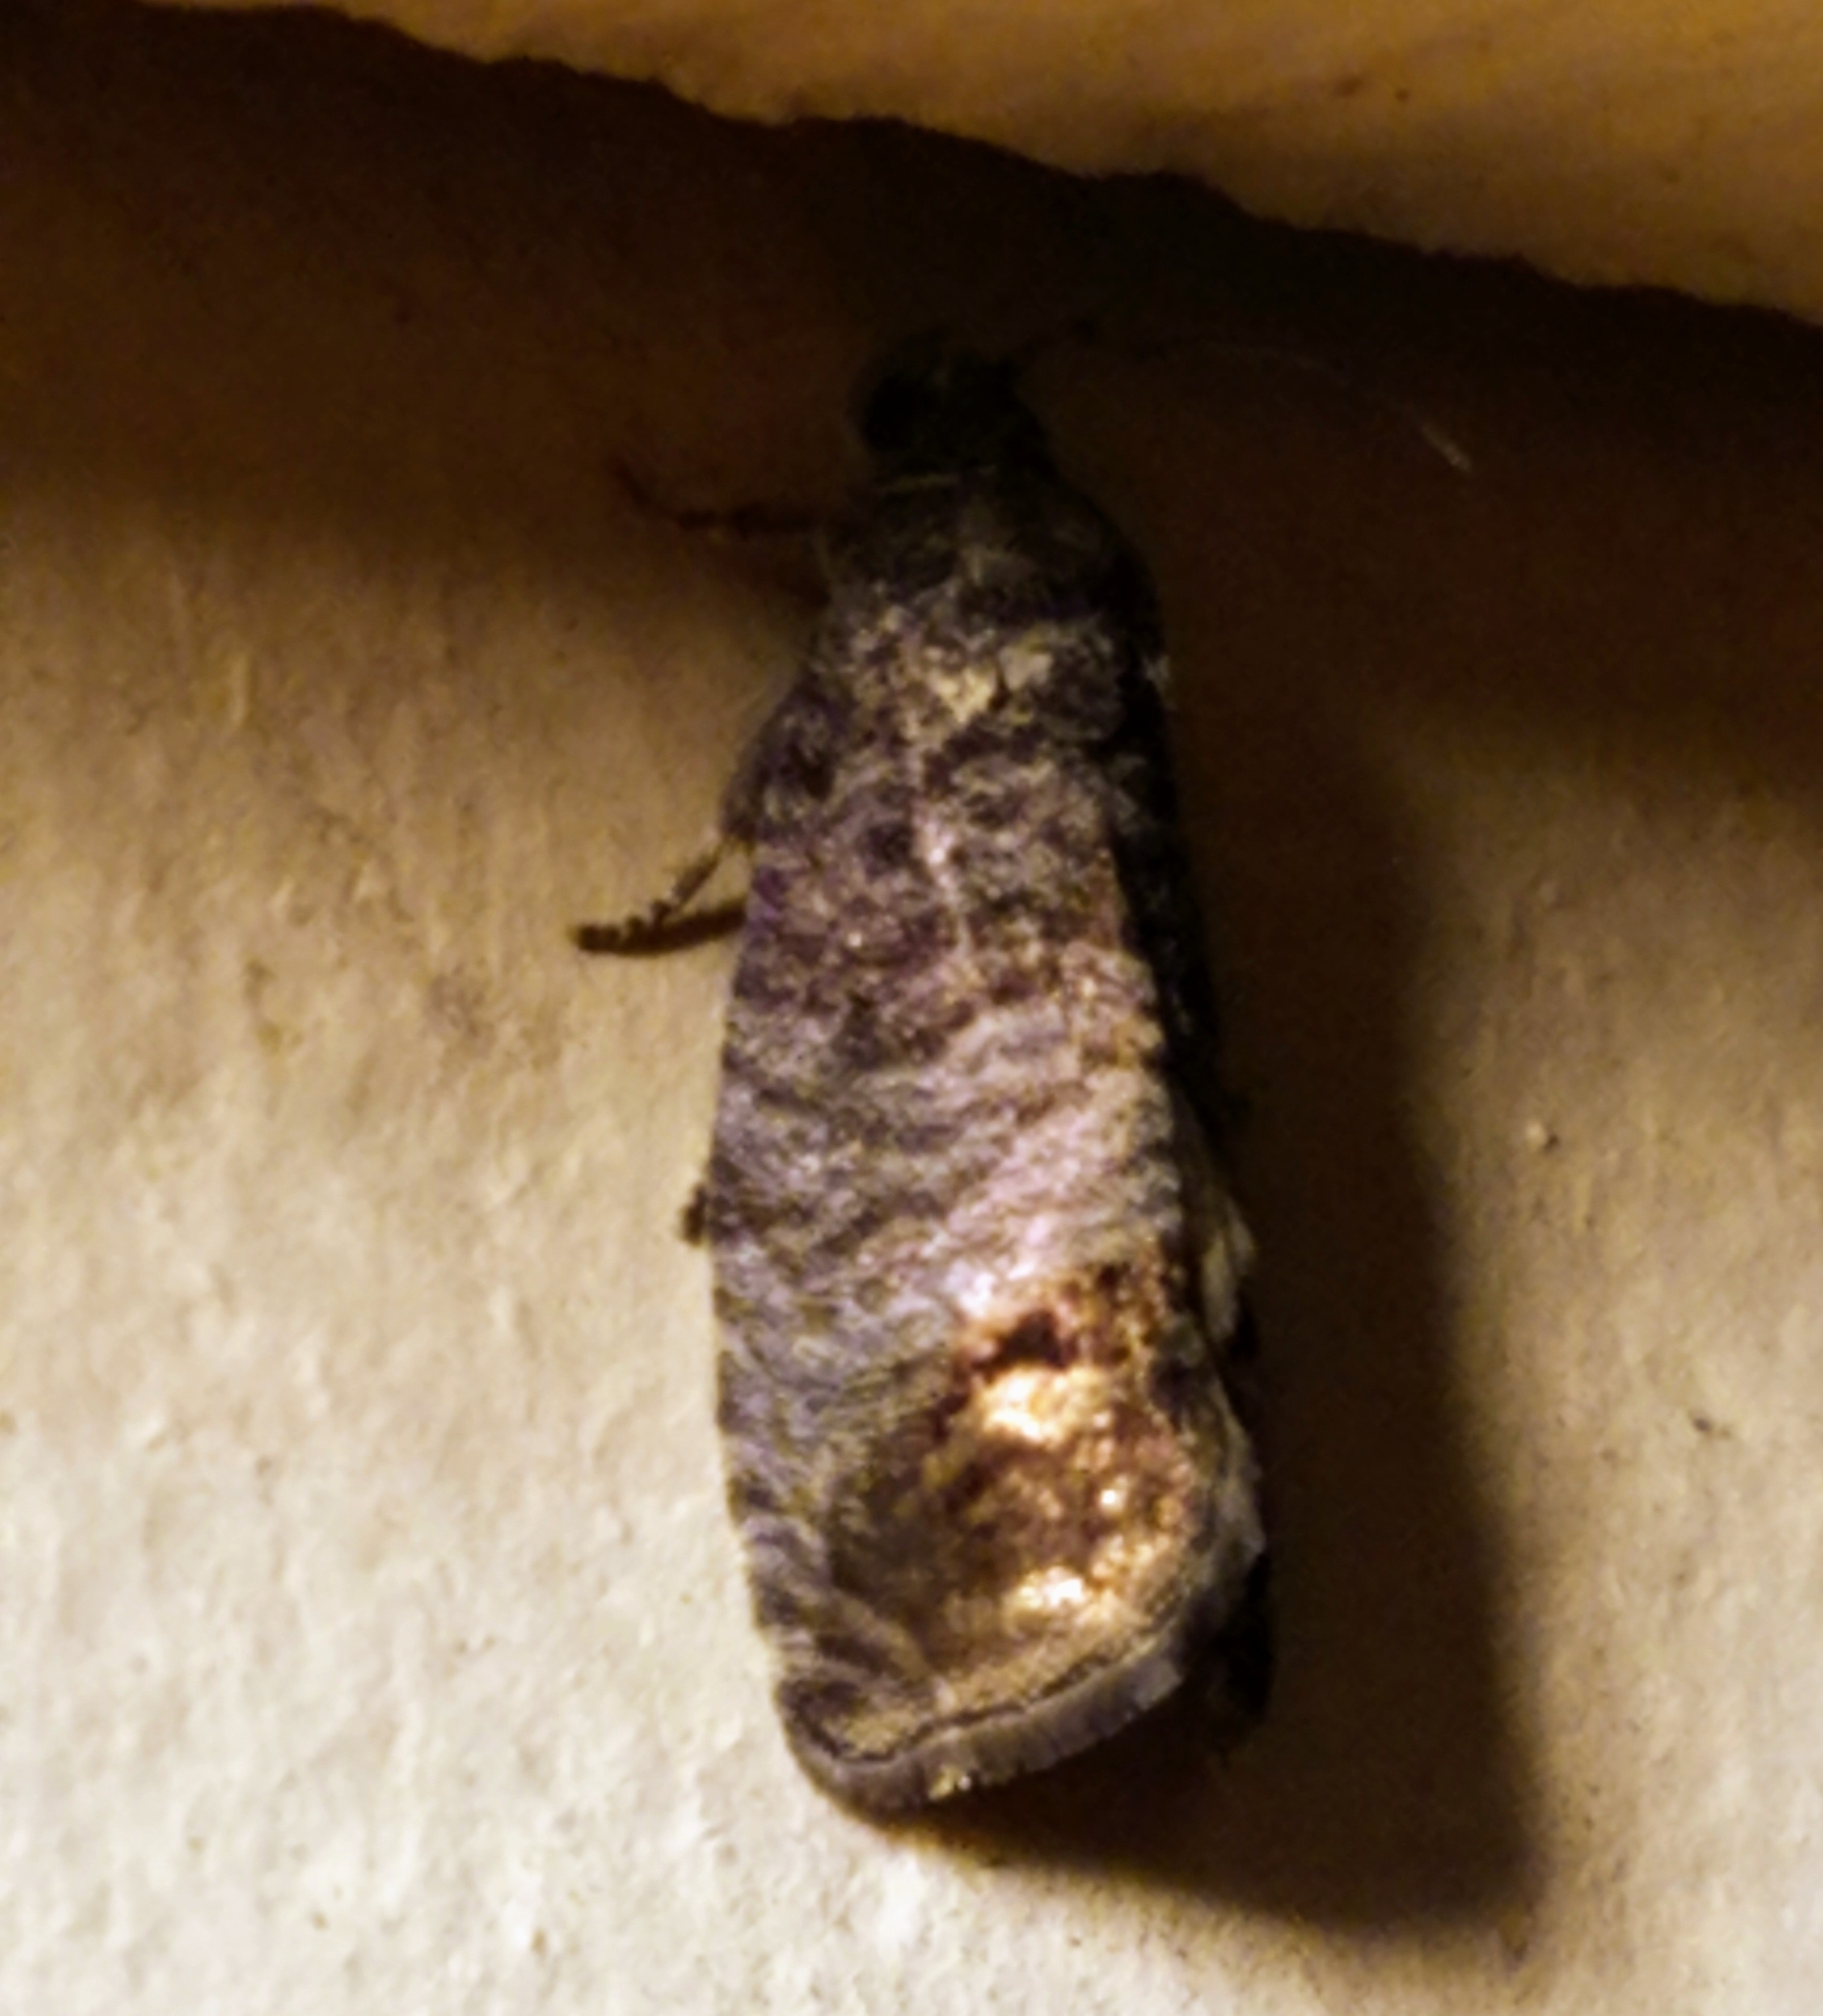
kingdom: Animalia
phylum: Arthropoda
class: Insecta
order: Lepidoptera
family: Tortricidae
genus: Cydia
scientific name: Cydia pomonella
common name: Codling moth
